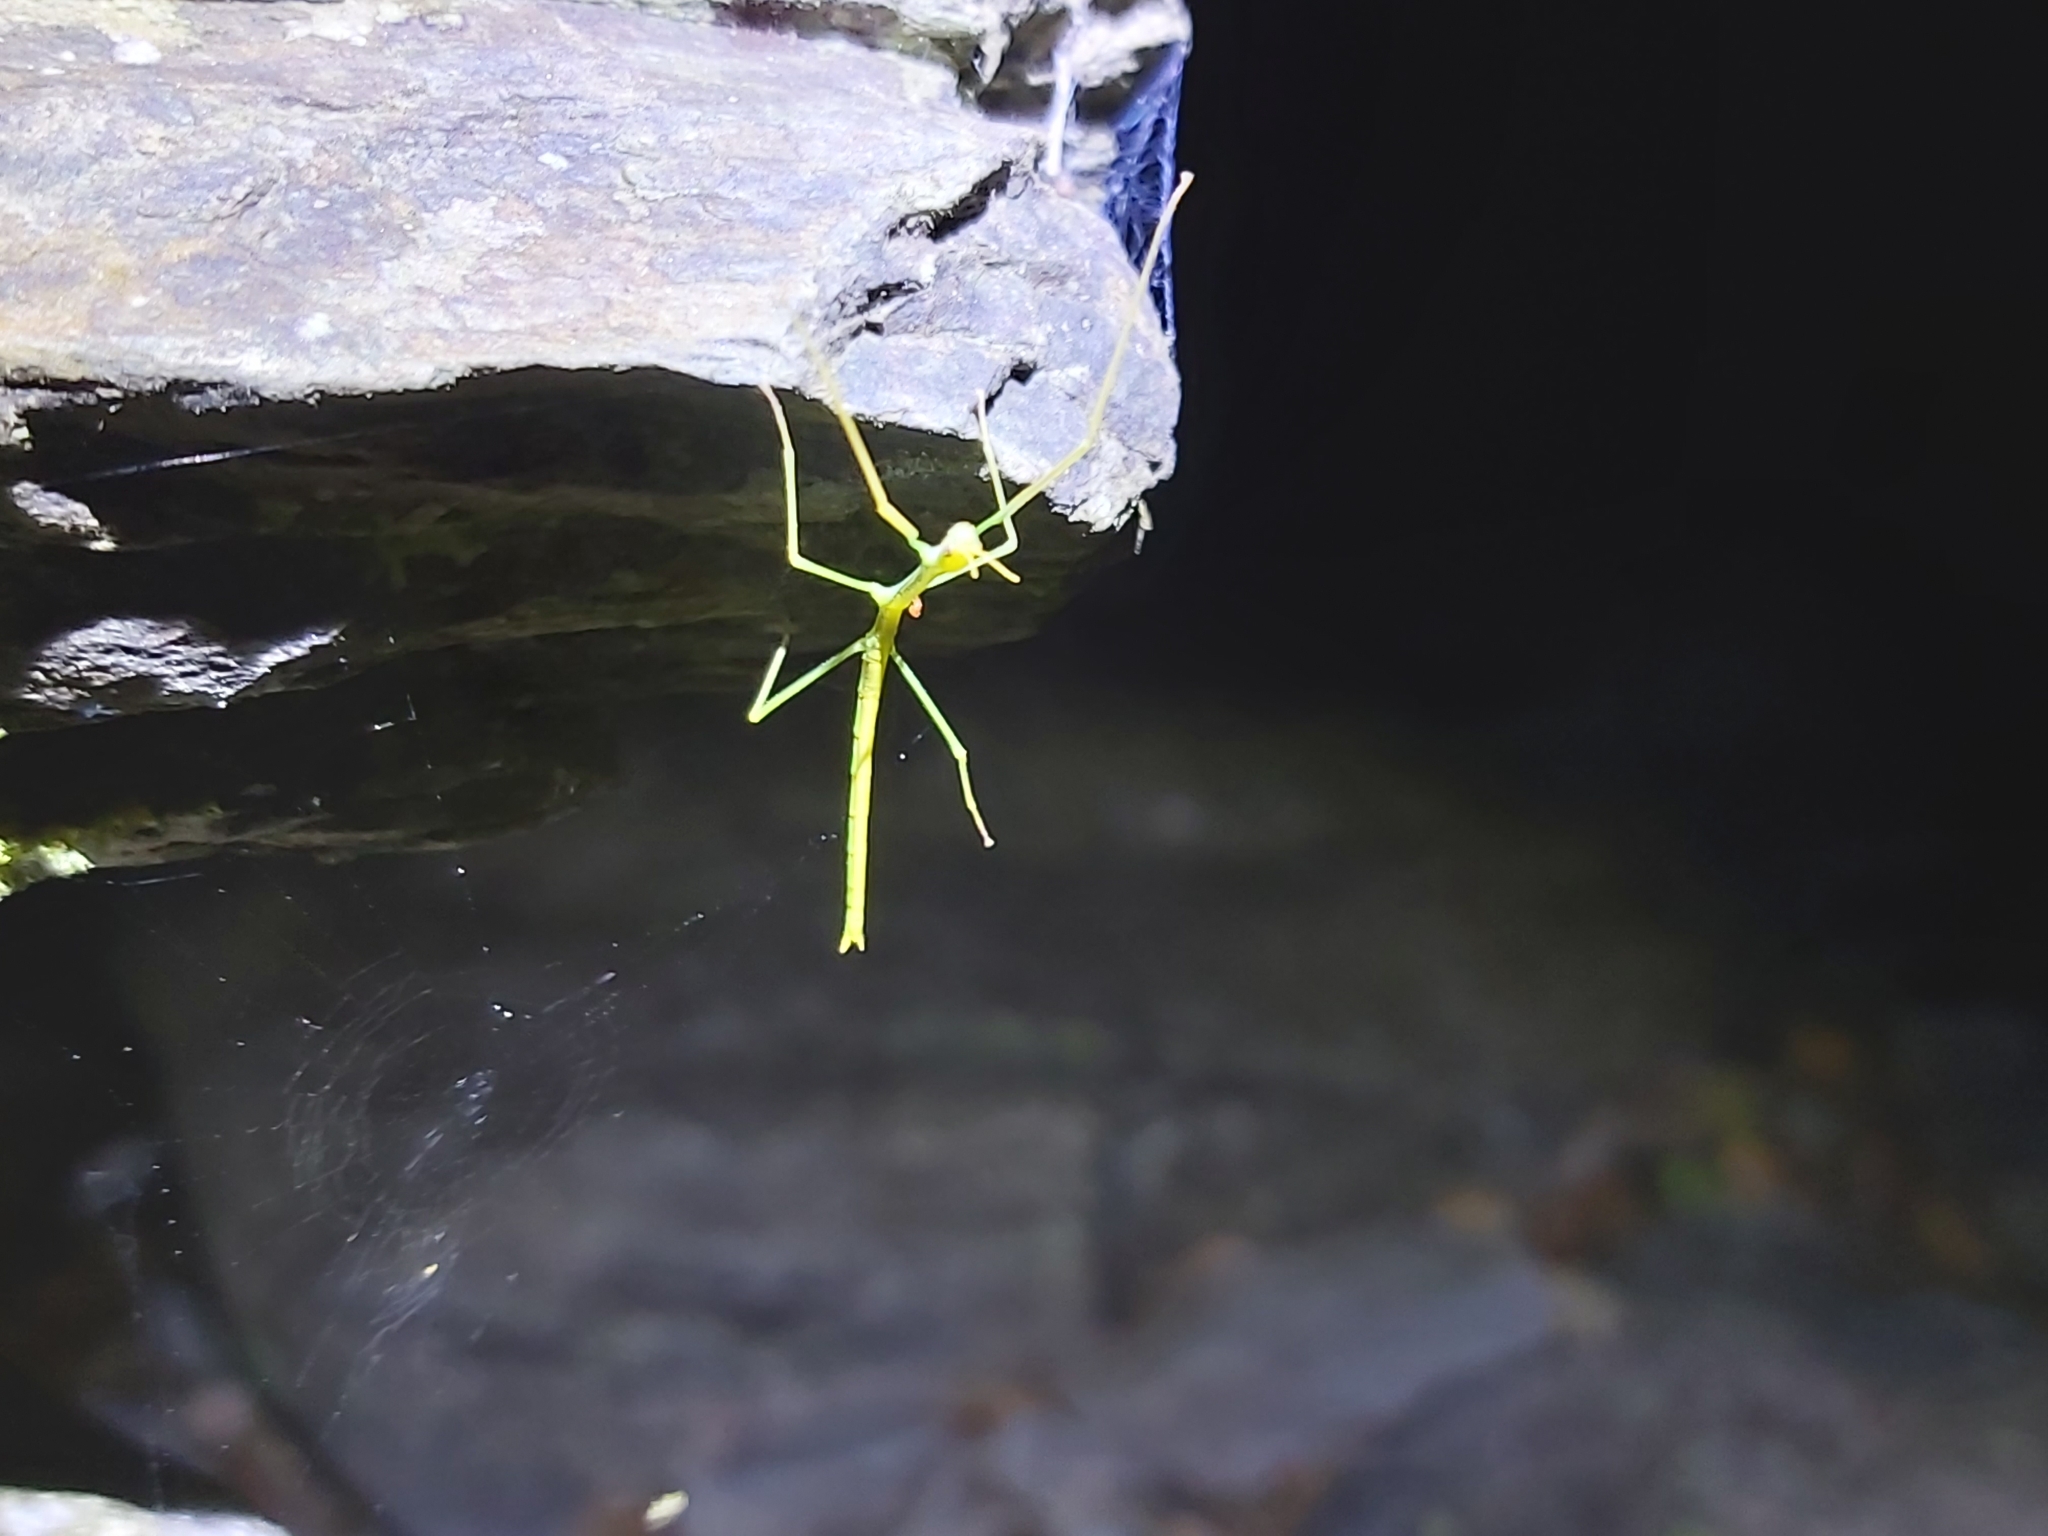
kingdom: Animalia
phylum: Arthropoda
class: Insecta
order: Phasmida
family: Phasmatidae
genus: Anchiale
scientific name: Anchiale briareus
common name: Strong stick insect
